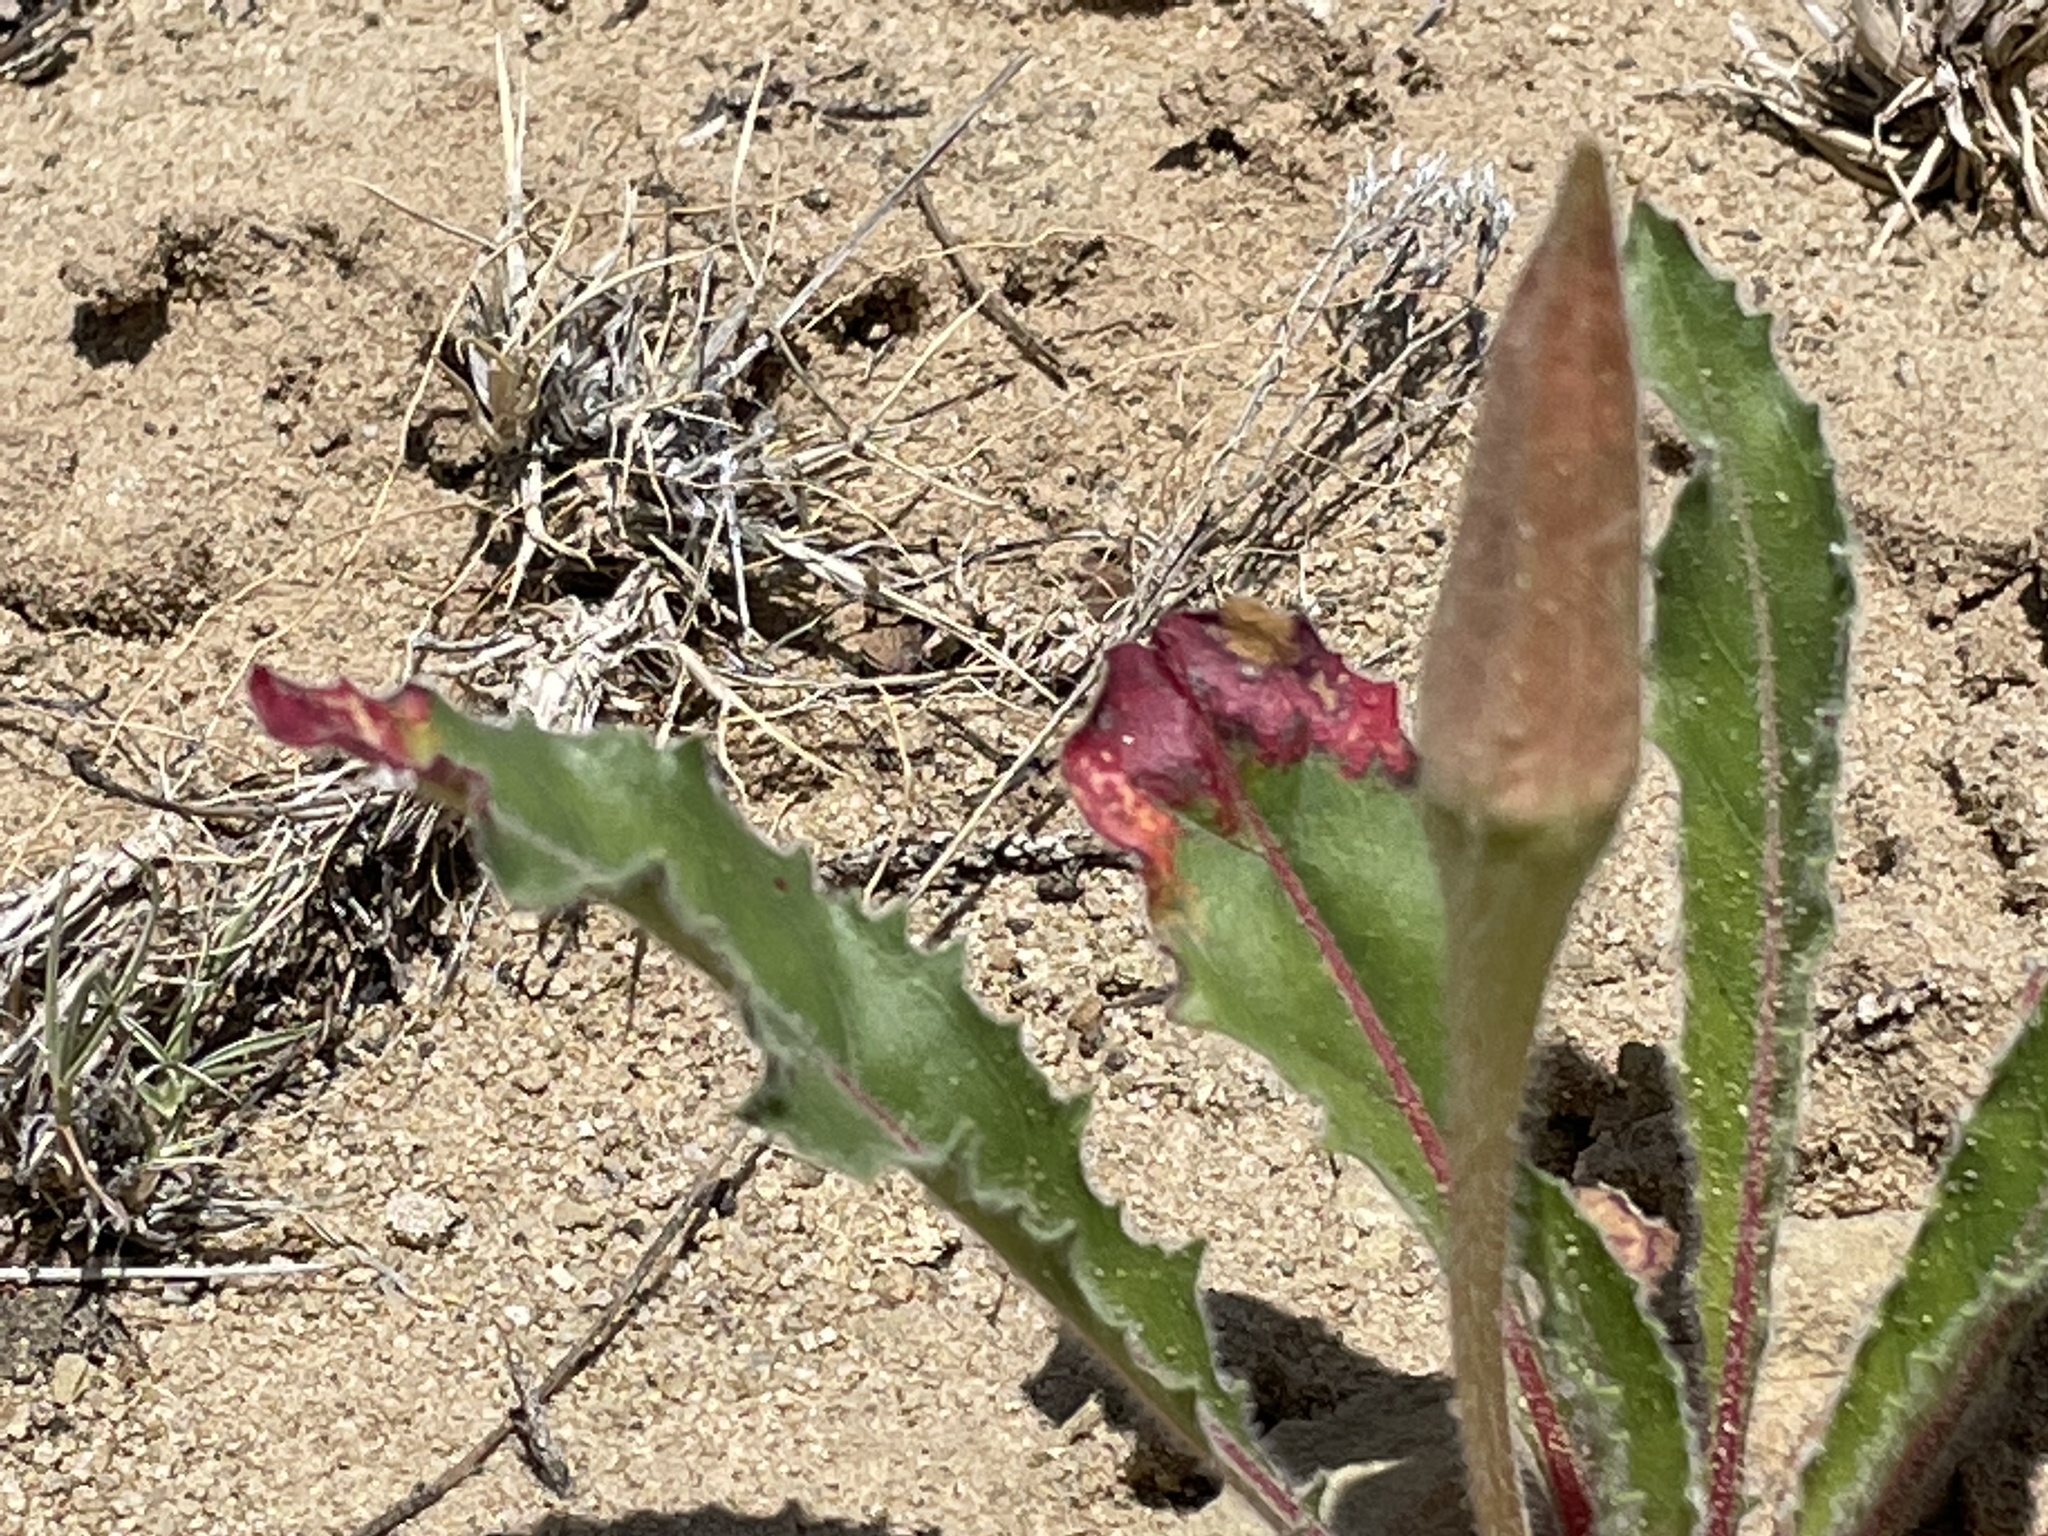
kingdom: Plantae
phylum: Tracheophyta
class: Magnoliopsida
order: Myrtales
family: Onagraceae
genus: Oenothera
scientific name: Oenothera cespitosa
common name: Tufted evening-primrose
